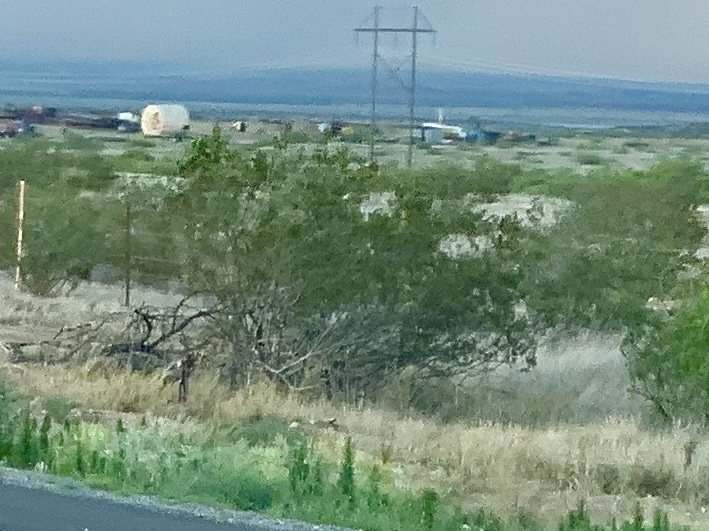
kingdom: Plantae
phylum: Tracheophyta
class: Magnoliopsida
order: Zygophyllales
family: Zygophyllaceae
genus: Larrea
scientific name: Larrea tridentata
